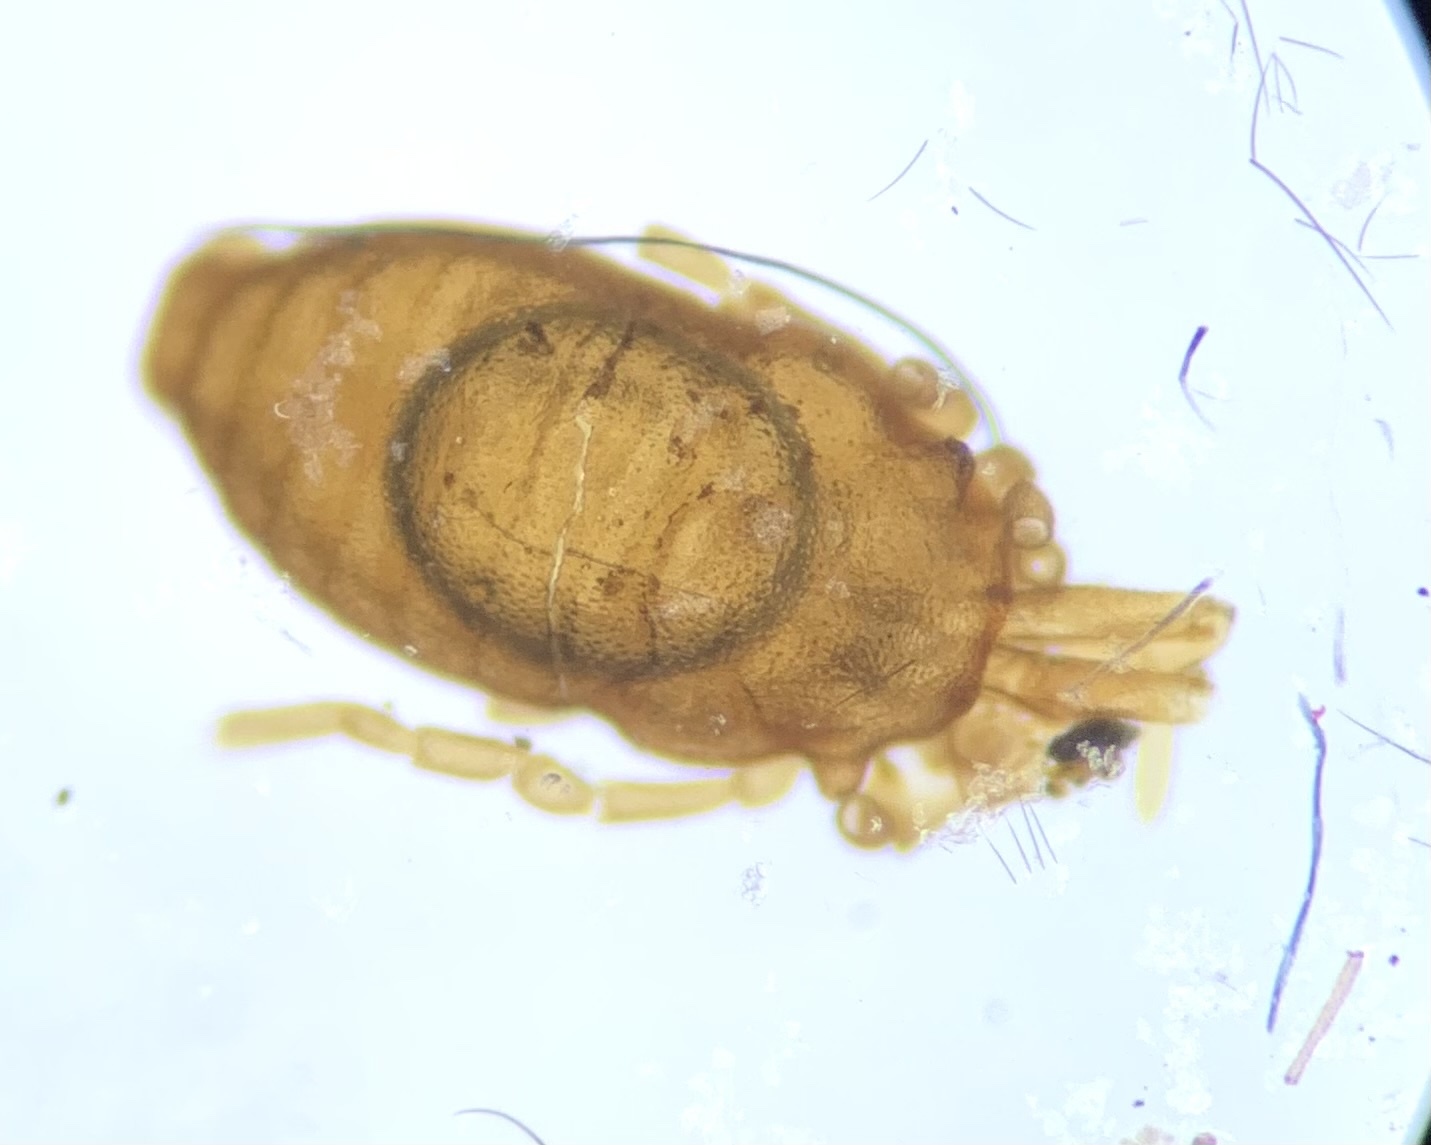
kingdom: Animalia
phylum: Arthropoda
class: Arachnida
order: Opiliones
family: Sironidae
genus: Siro
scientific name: Siro rubens
